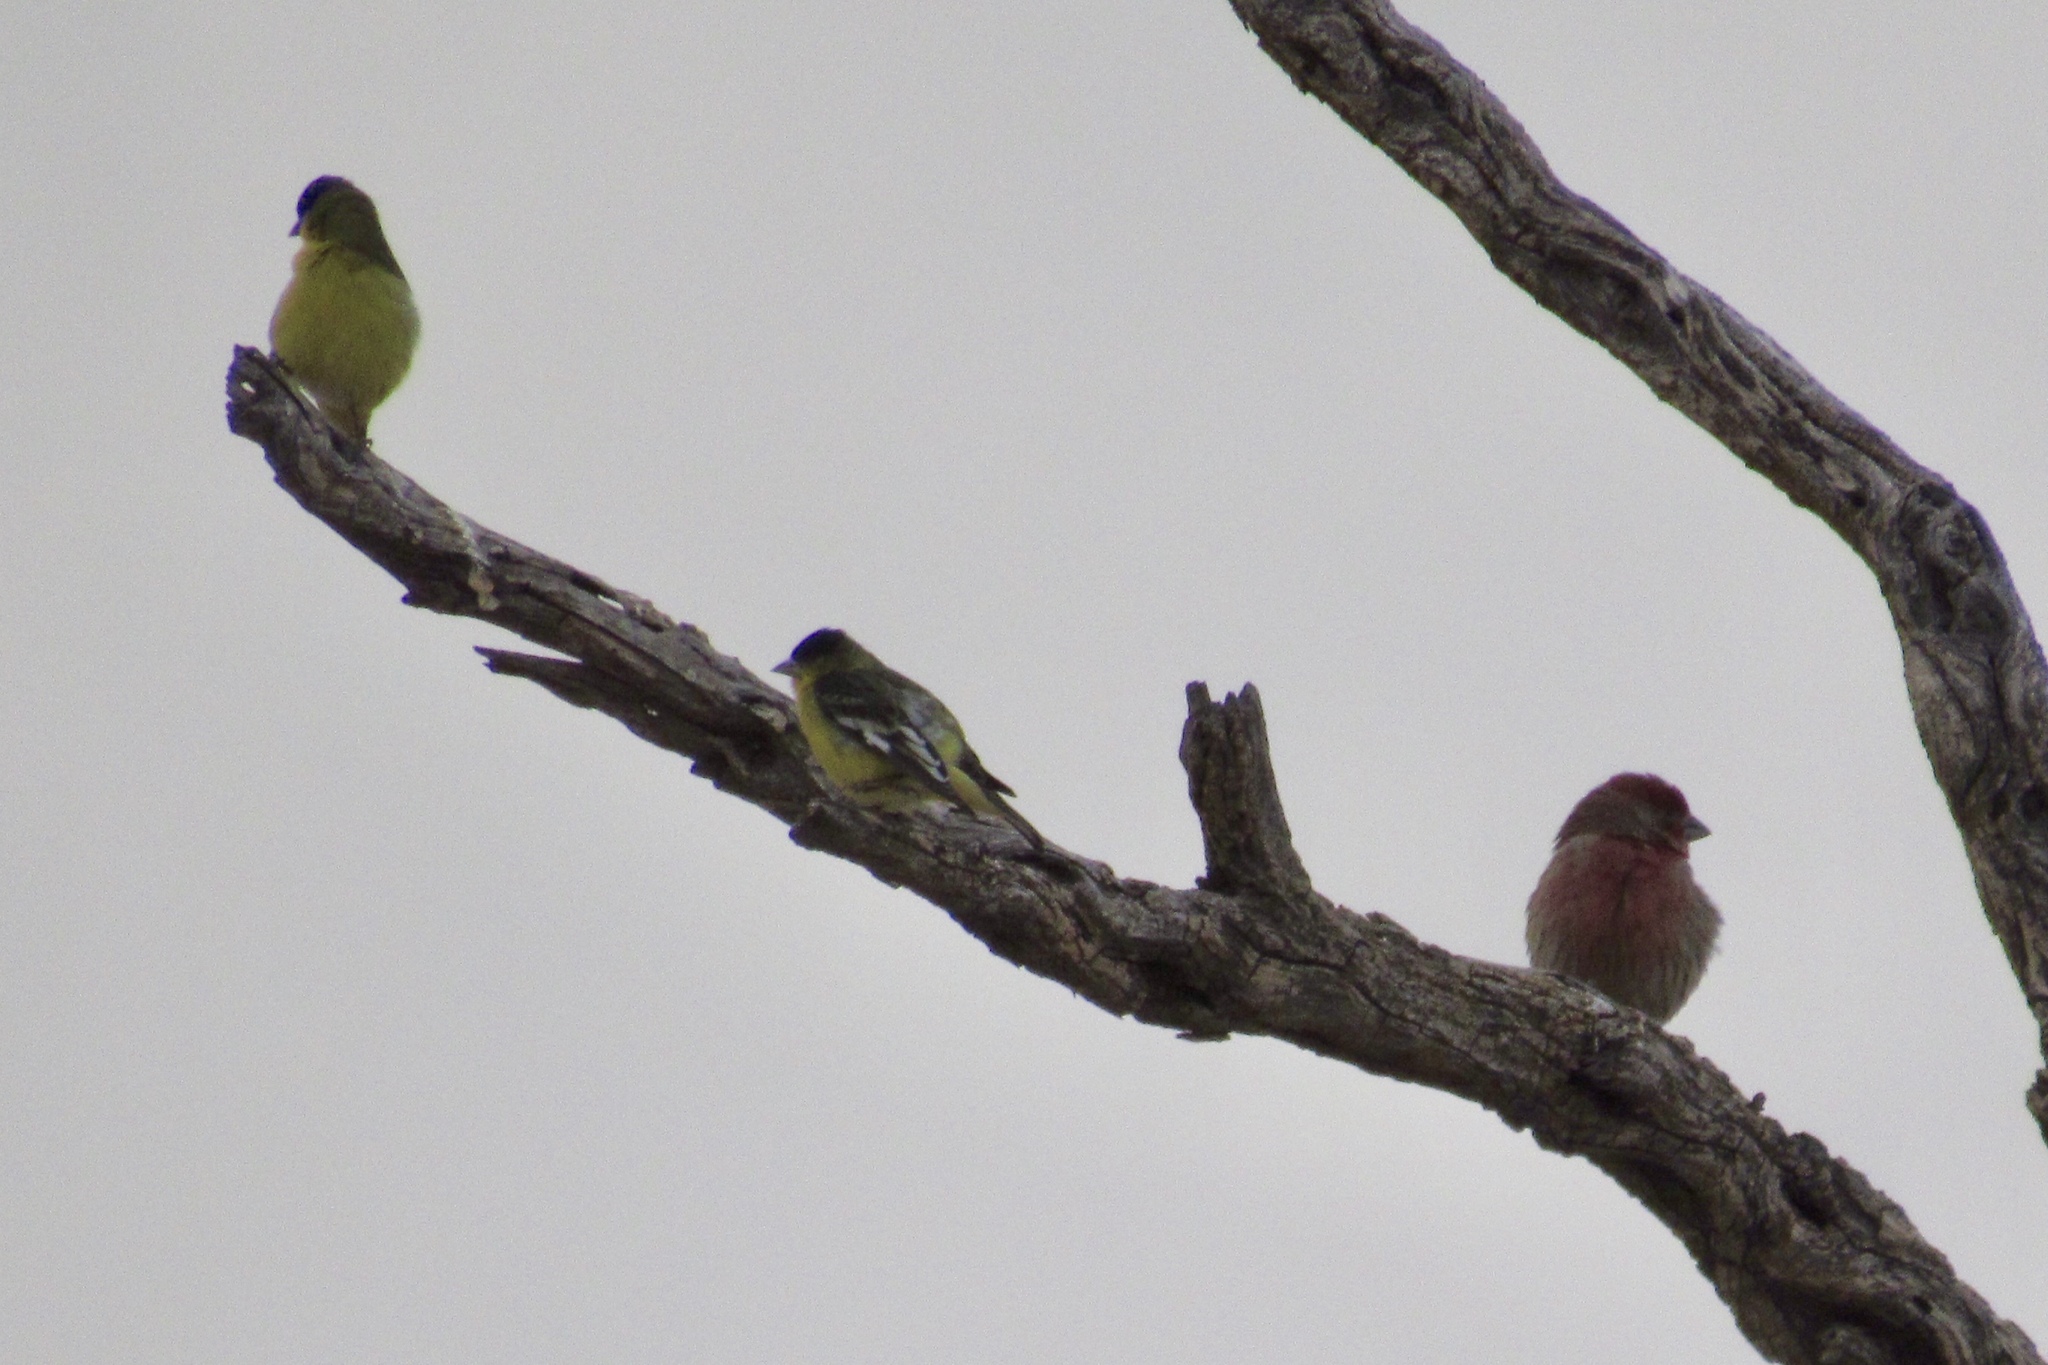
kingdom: Animalia
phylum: Chordata
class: Aves
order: Passeriformes
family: Fringillidae
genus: Spinus
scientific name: Spinus psaltria
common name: Lesser goldfinch
